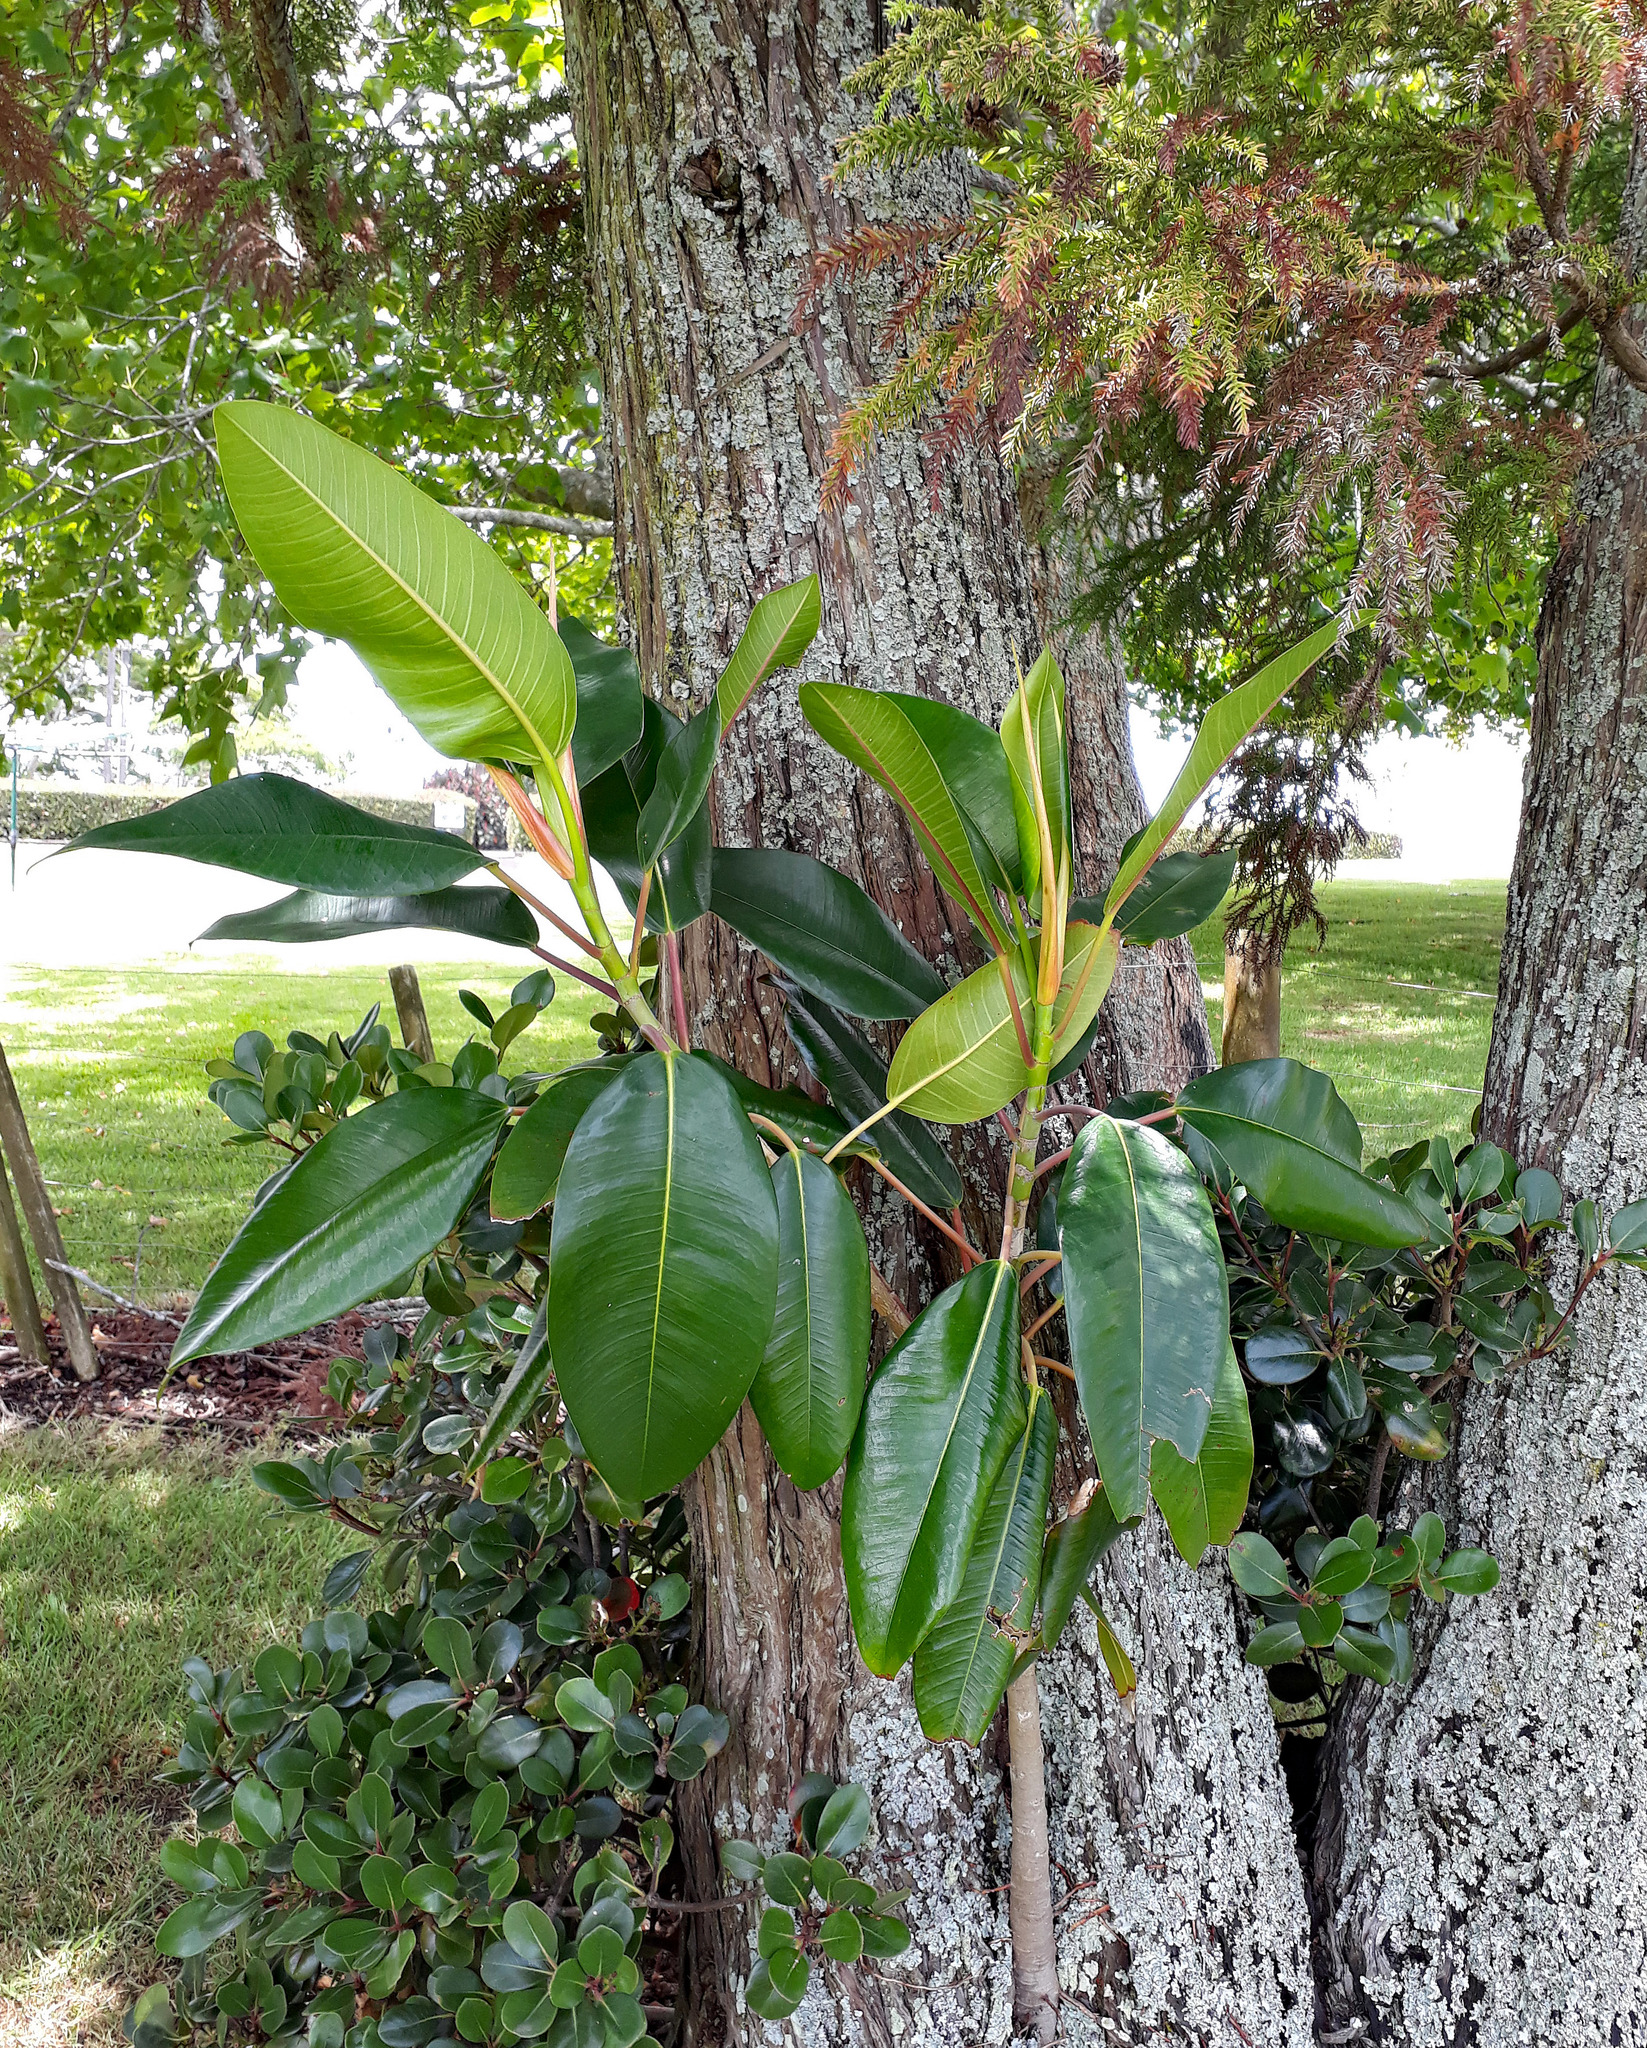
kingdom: Plantae
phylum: Tracheophyta
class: Magnoliopsida
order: Rosales
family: Moraceae
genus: Ficus
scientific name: Ficus macrophylla
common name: Moreton bay fig
